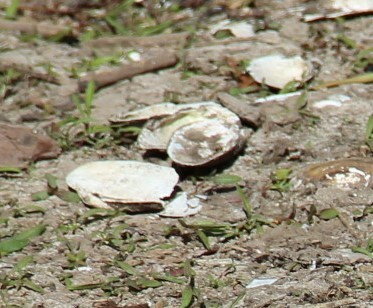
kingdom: Animalia
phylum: Mollusca
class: Bivalvia
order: Unionida
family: Unionidae
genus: Anodonta
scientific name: Anodonta anatina
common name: Duck mussel
